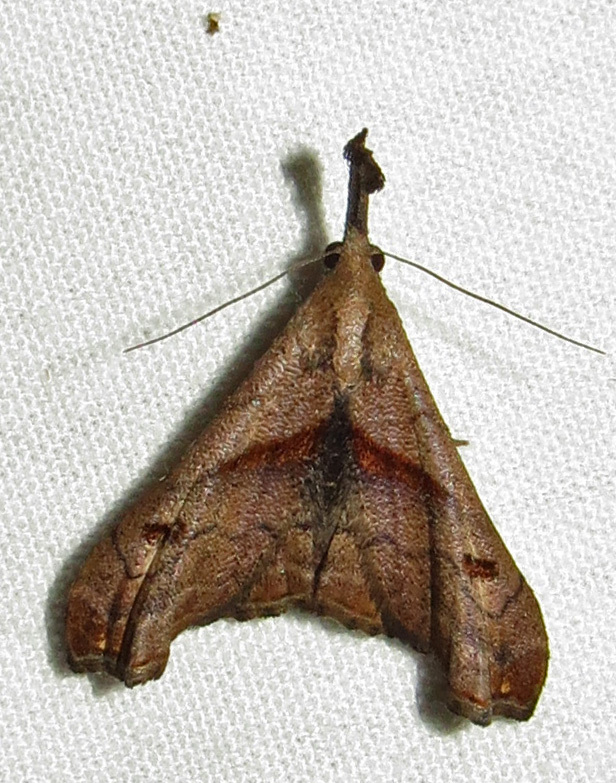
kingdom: Animalia
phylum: Arthropoda
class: Insecta
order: Lepidoptera
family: Erebidae
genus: Palthis
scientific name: Palthis angulalis
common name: Dark-spotted palthis moth
